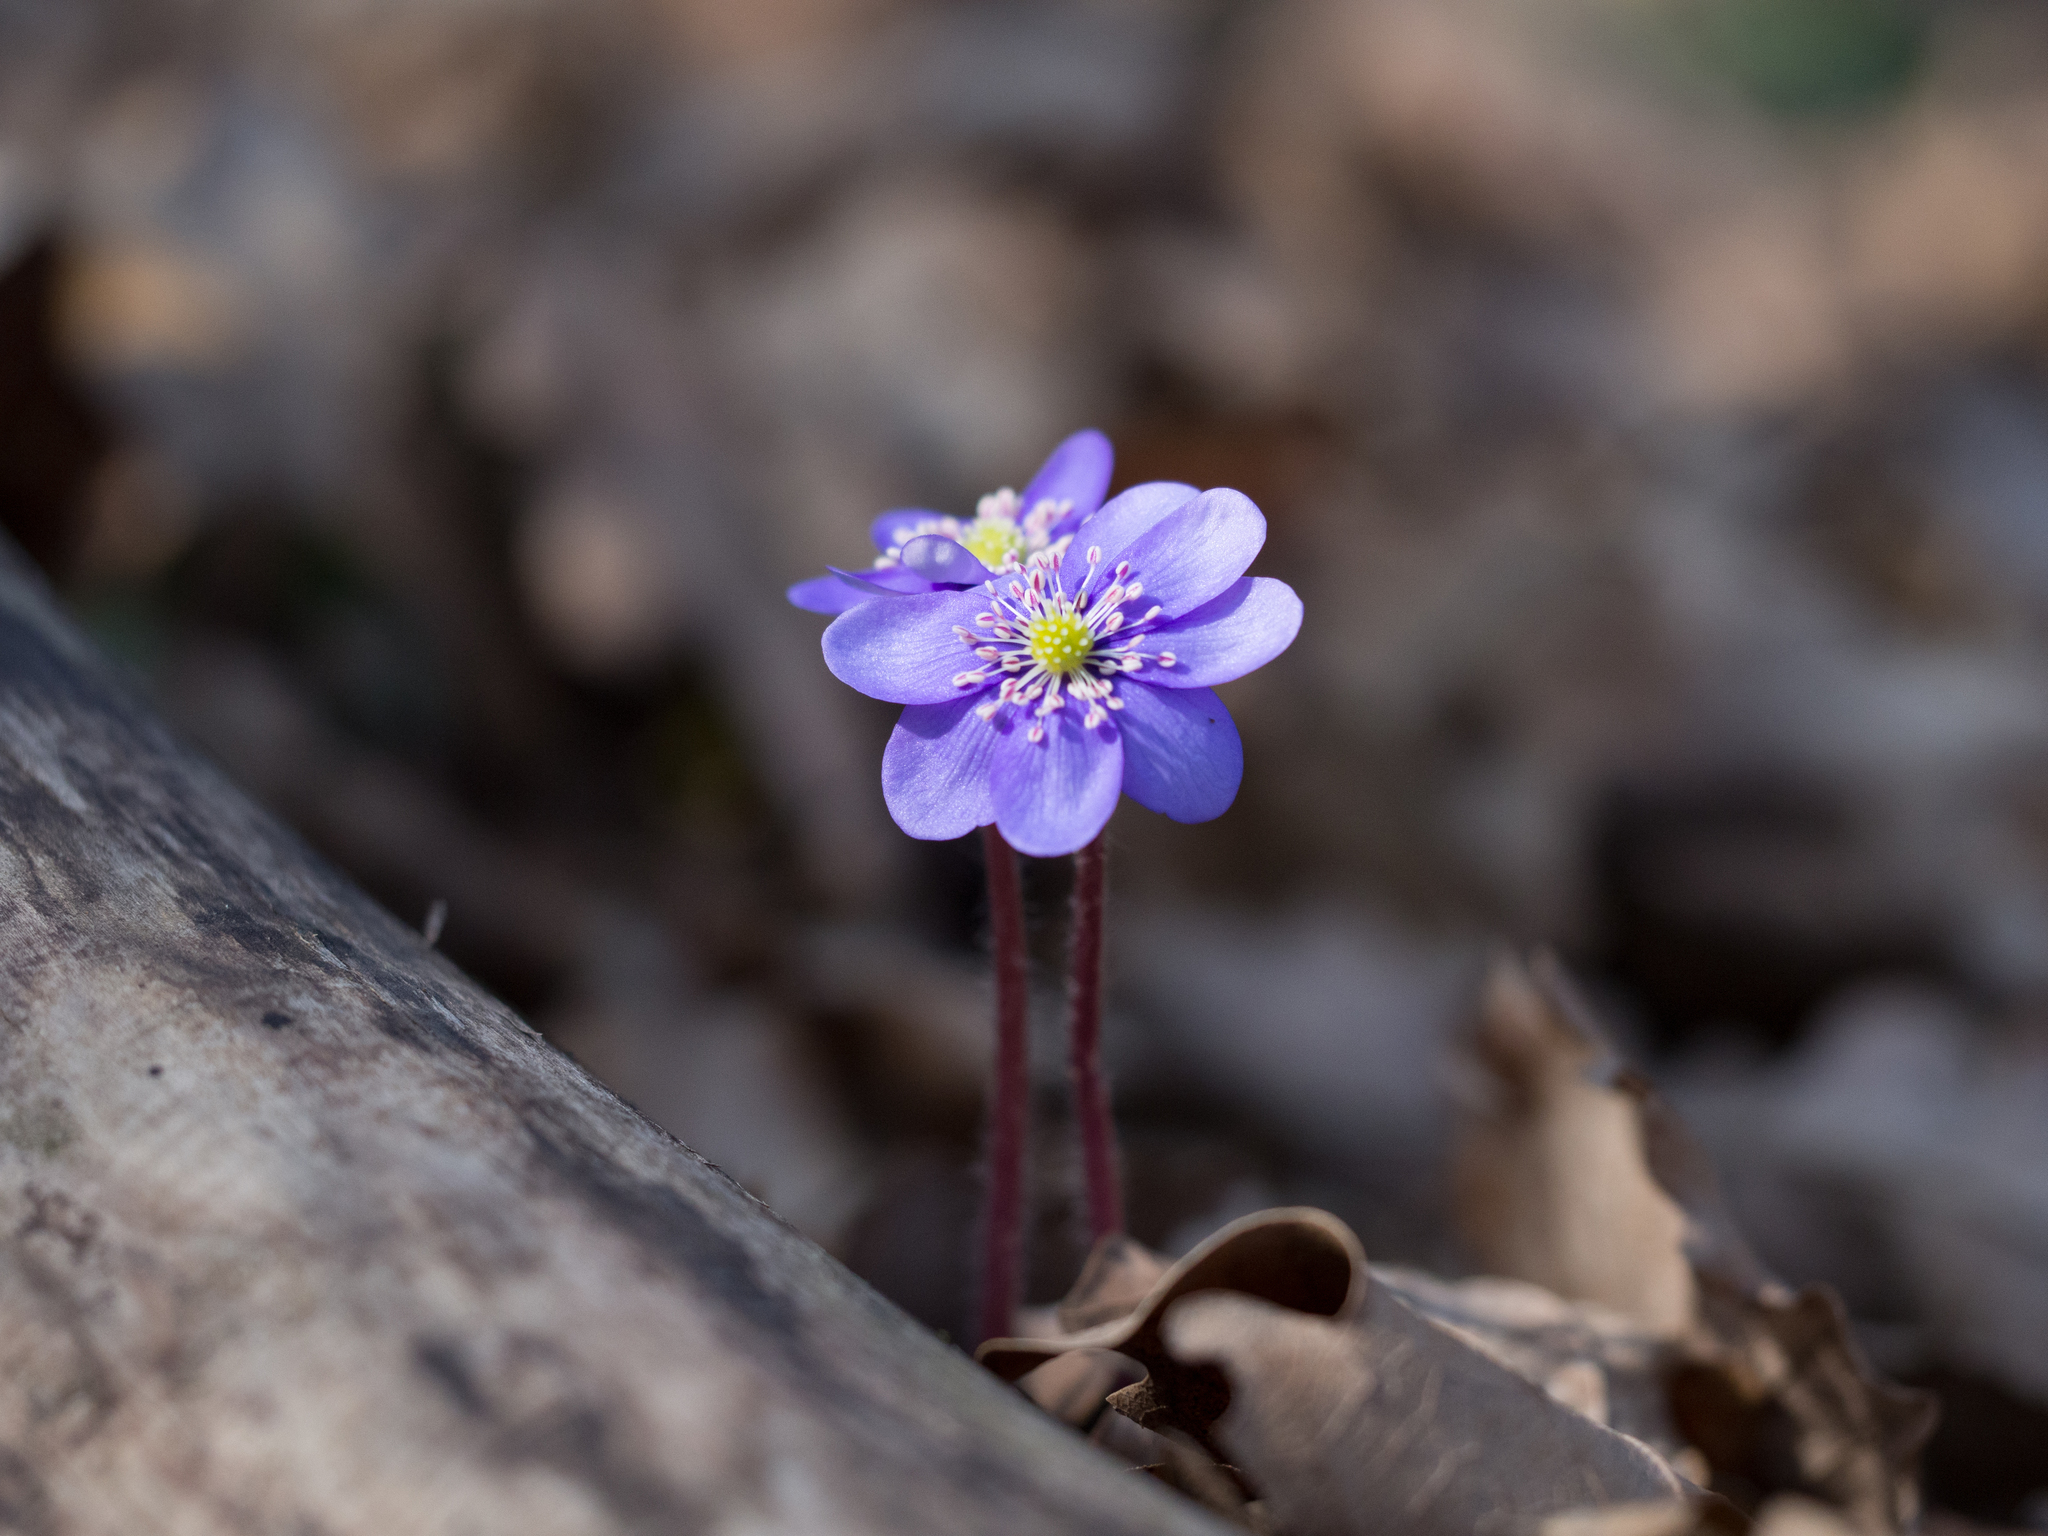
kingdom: Plantae
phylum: Tracheophyta
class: Magnoliopsida
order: Ranunculales
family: Ranunculaceae
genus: Hepatica
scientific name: Hepatica nobilis
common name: Liverleaf
